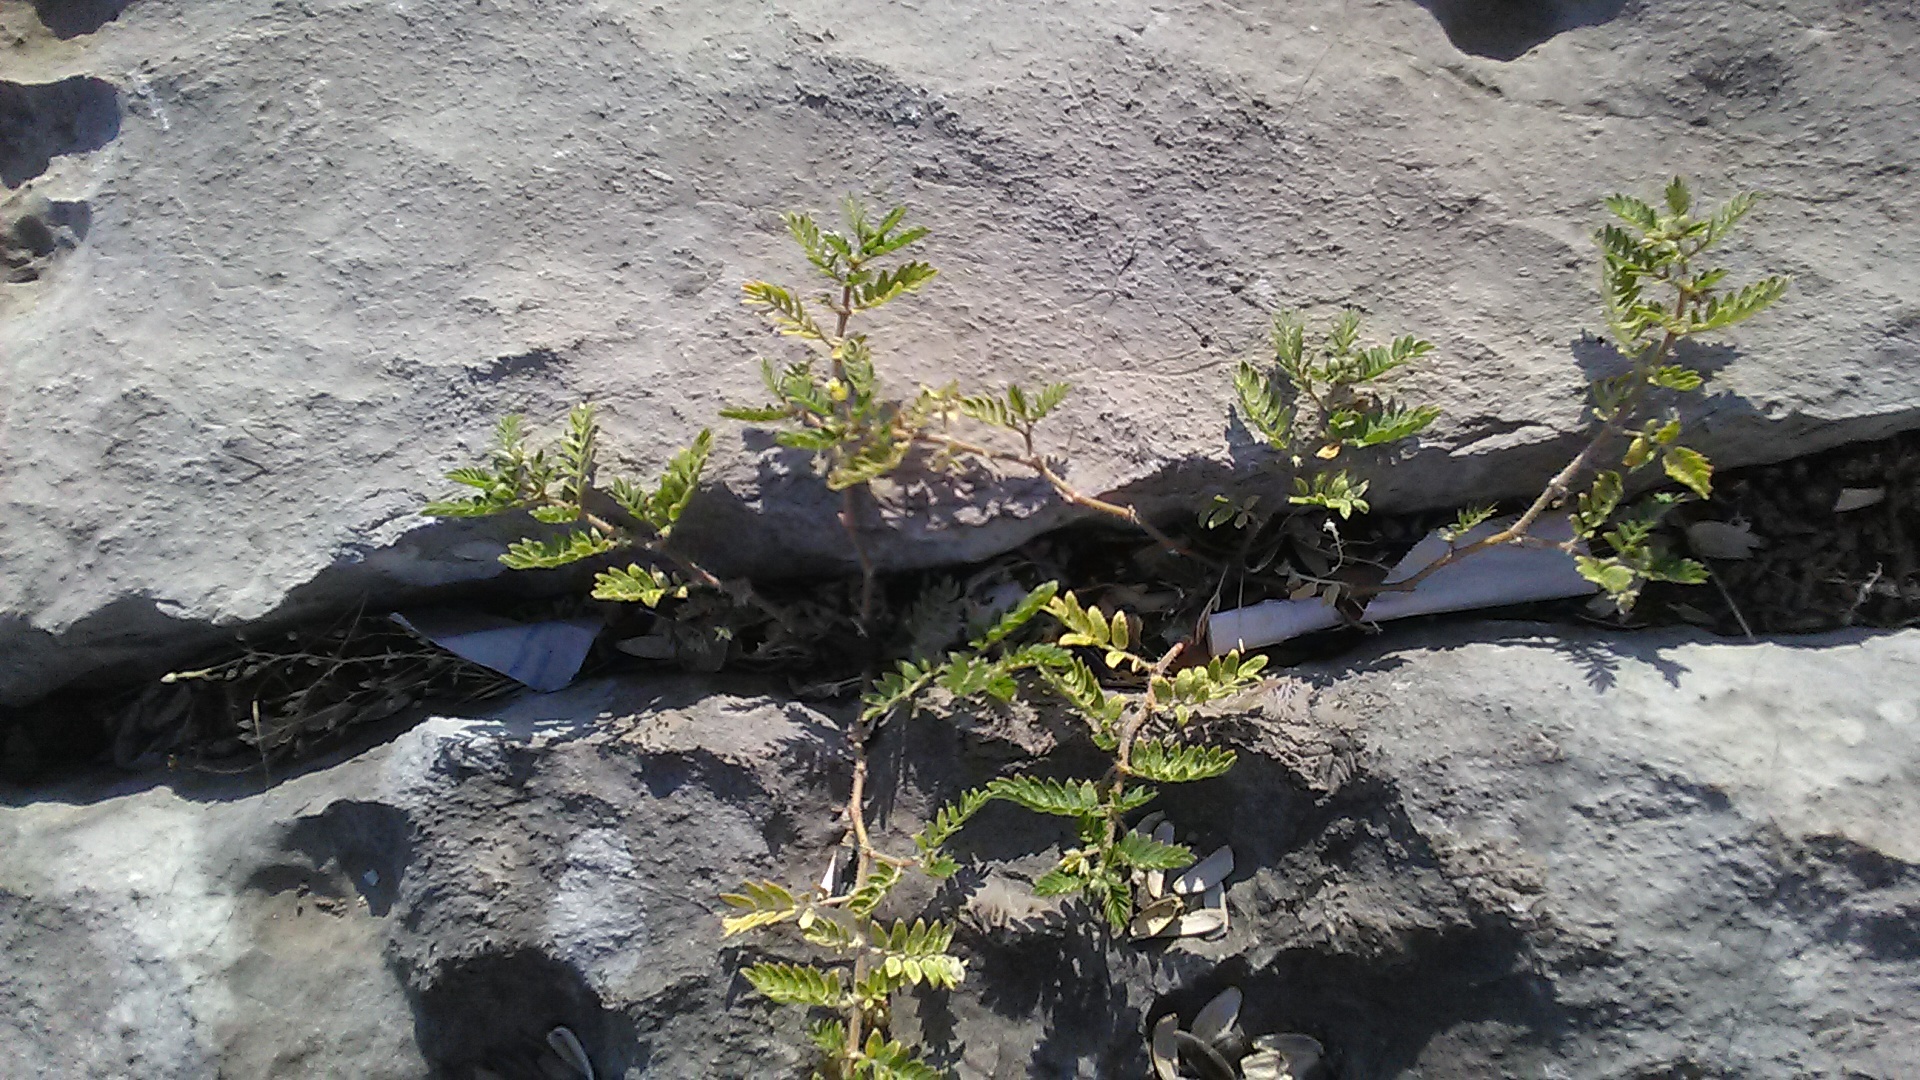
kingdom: Plantae
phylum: Tracheophyta
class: Magnoliopsida
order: Zygophyllales
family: Zygophyllaceae
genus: Tribulus
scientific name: Tribulus terrestris
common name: Puncturevine
